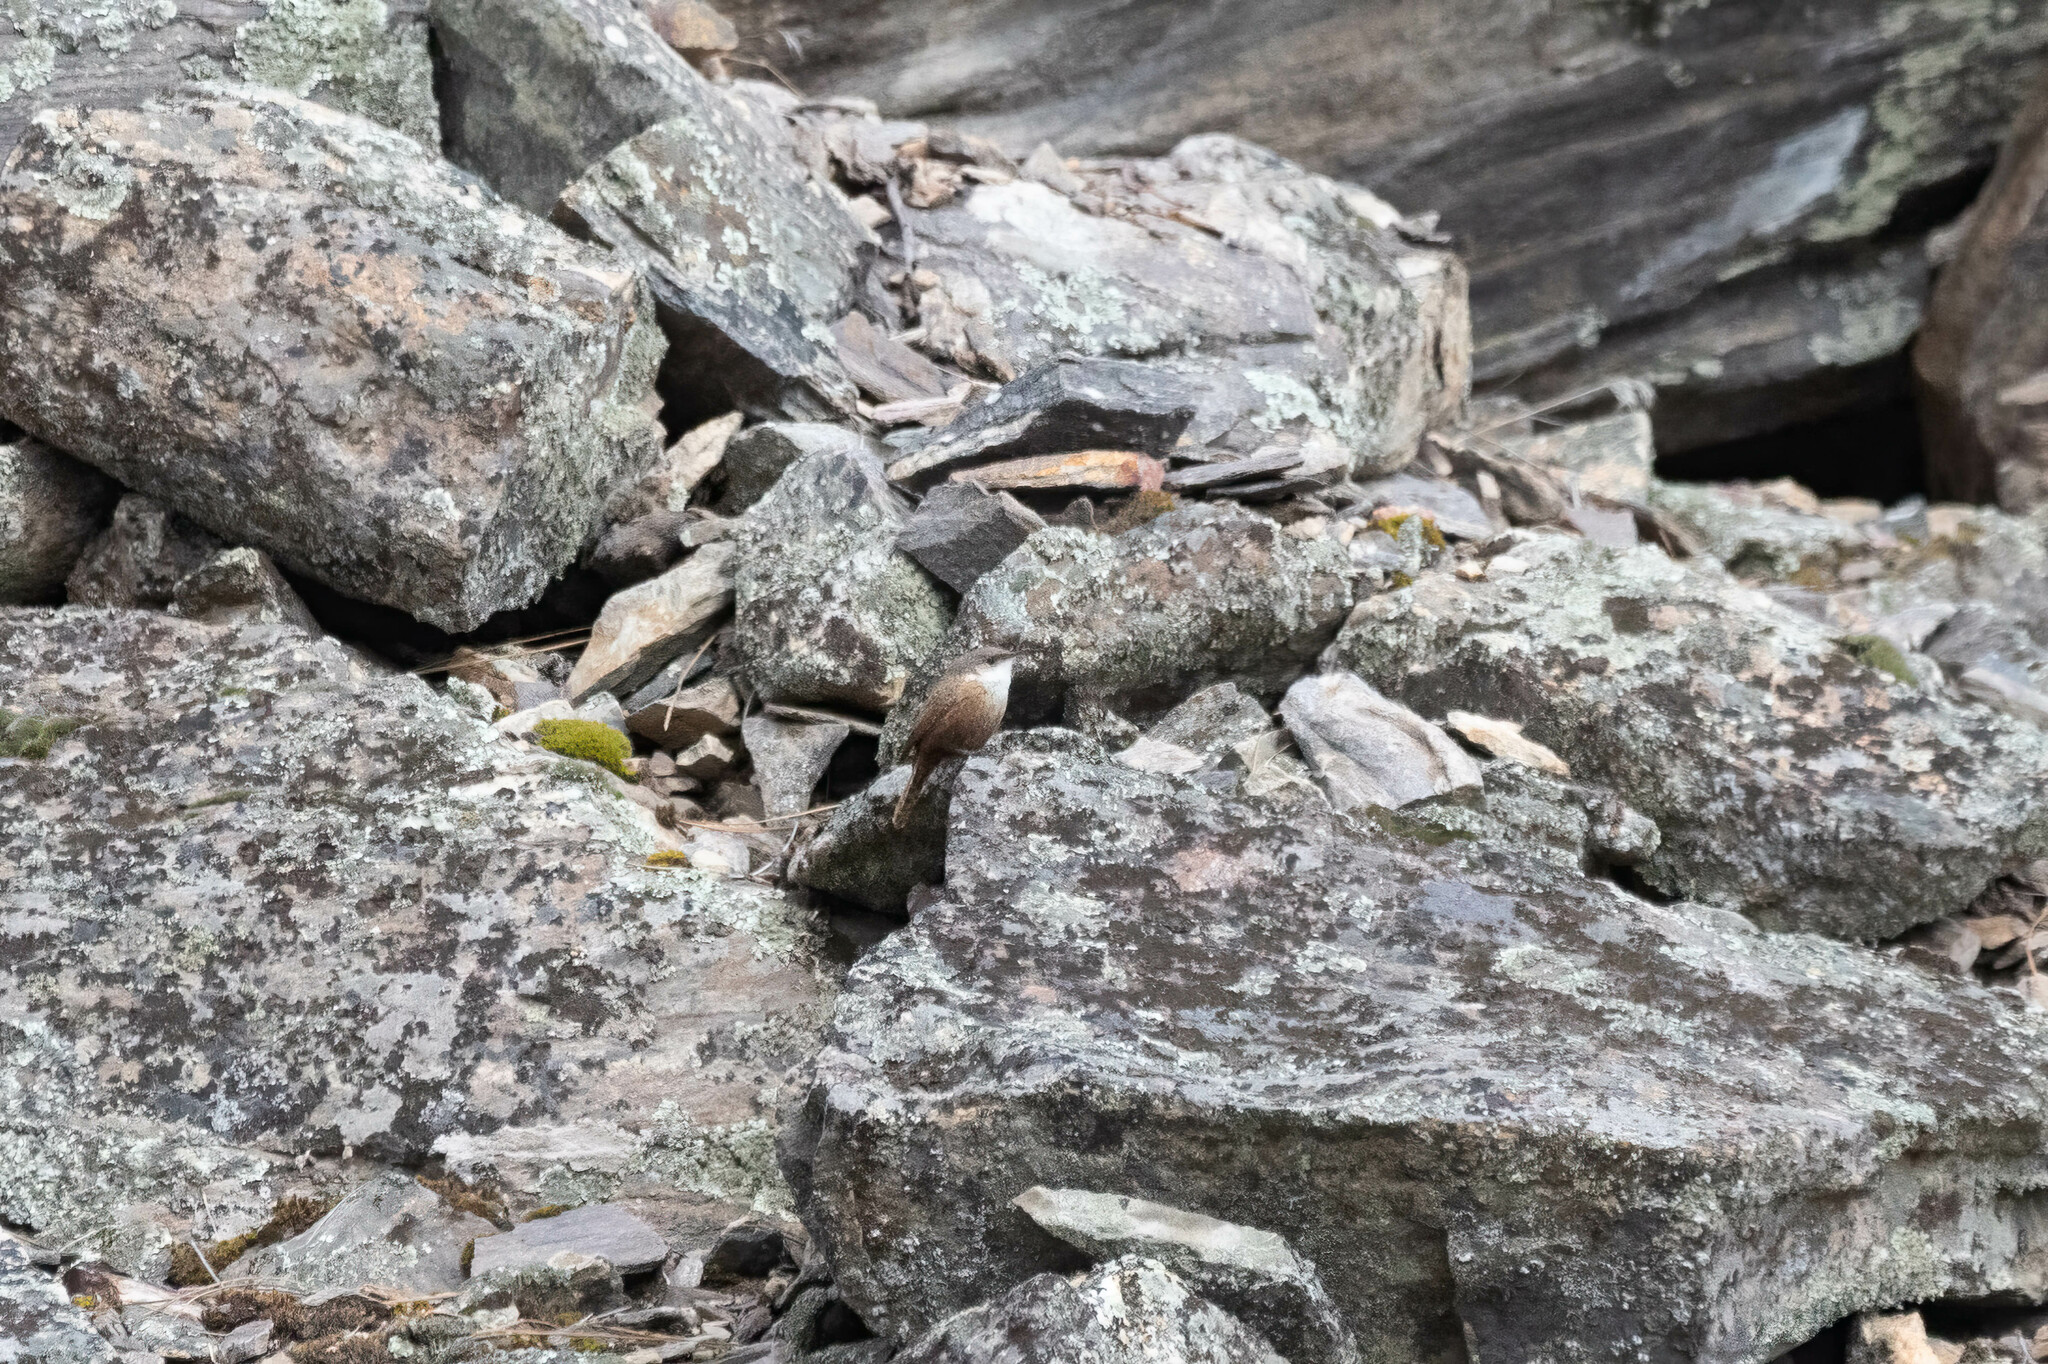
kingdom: Animalia
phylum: Chordata
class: Aves
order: Passeriformes
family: Troglodytidae
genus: Catherpes
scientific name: Catherpes mexicanus
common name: Canyon wren
